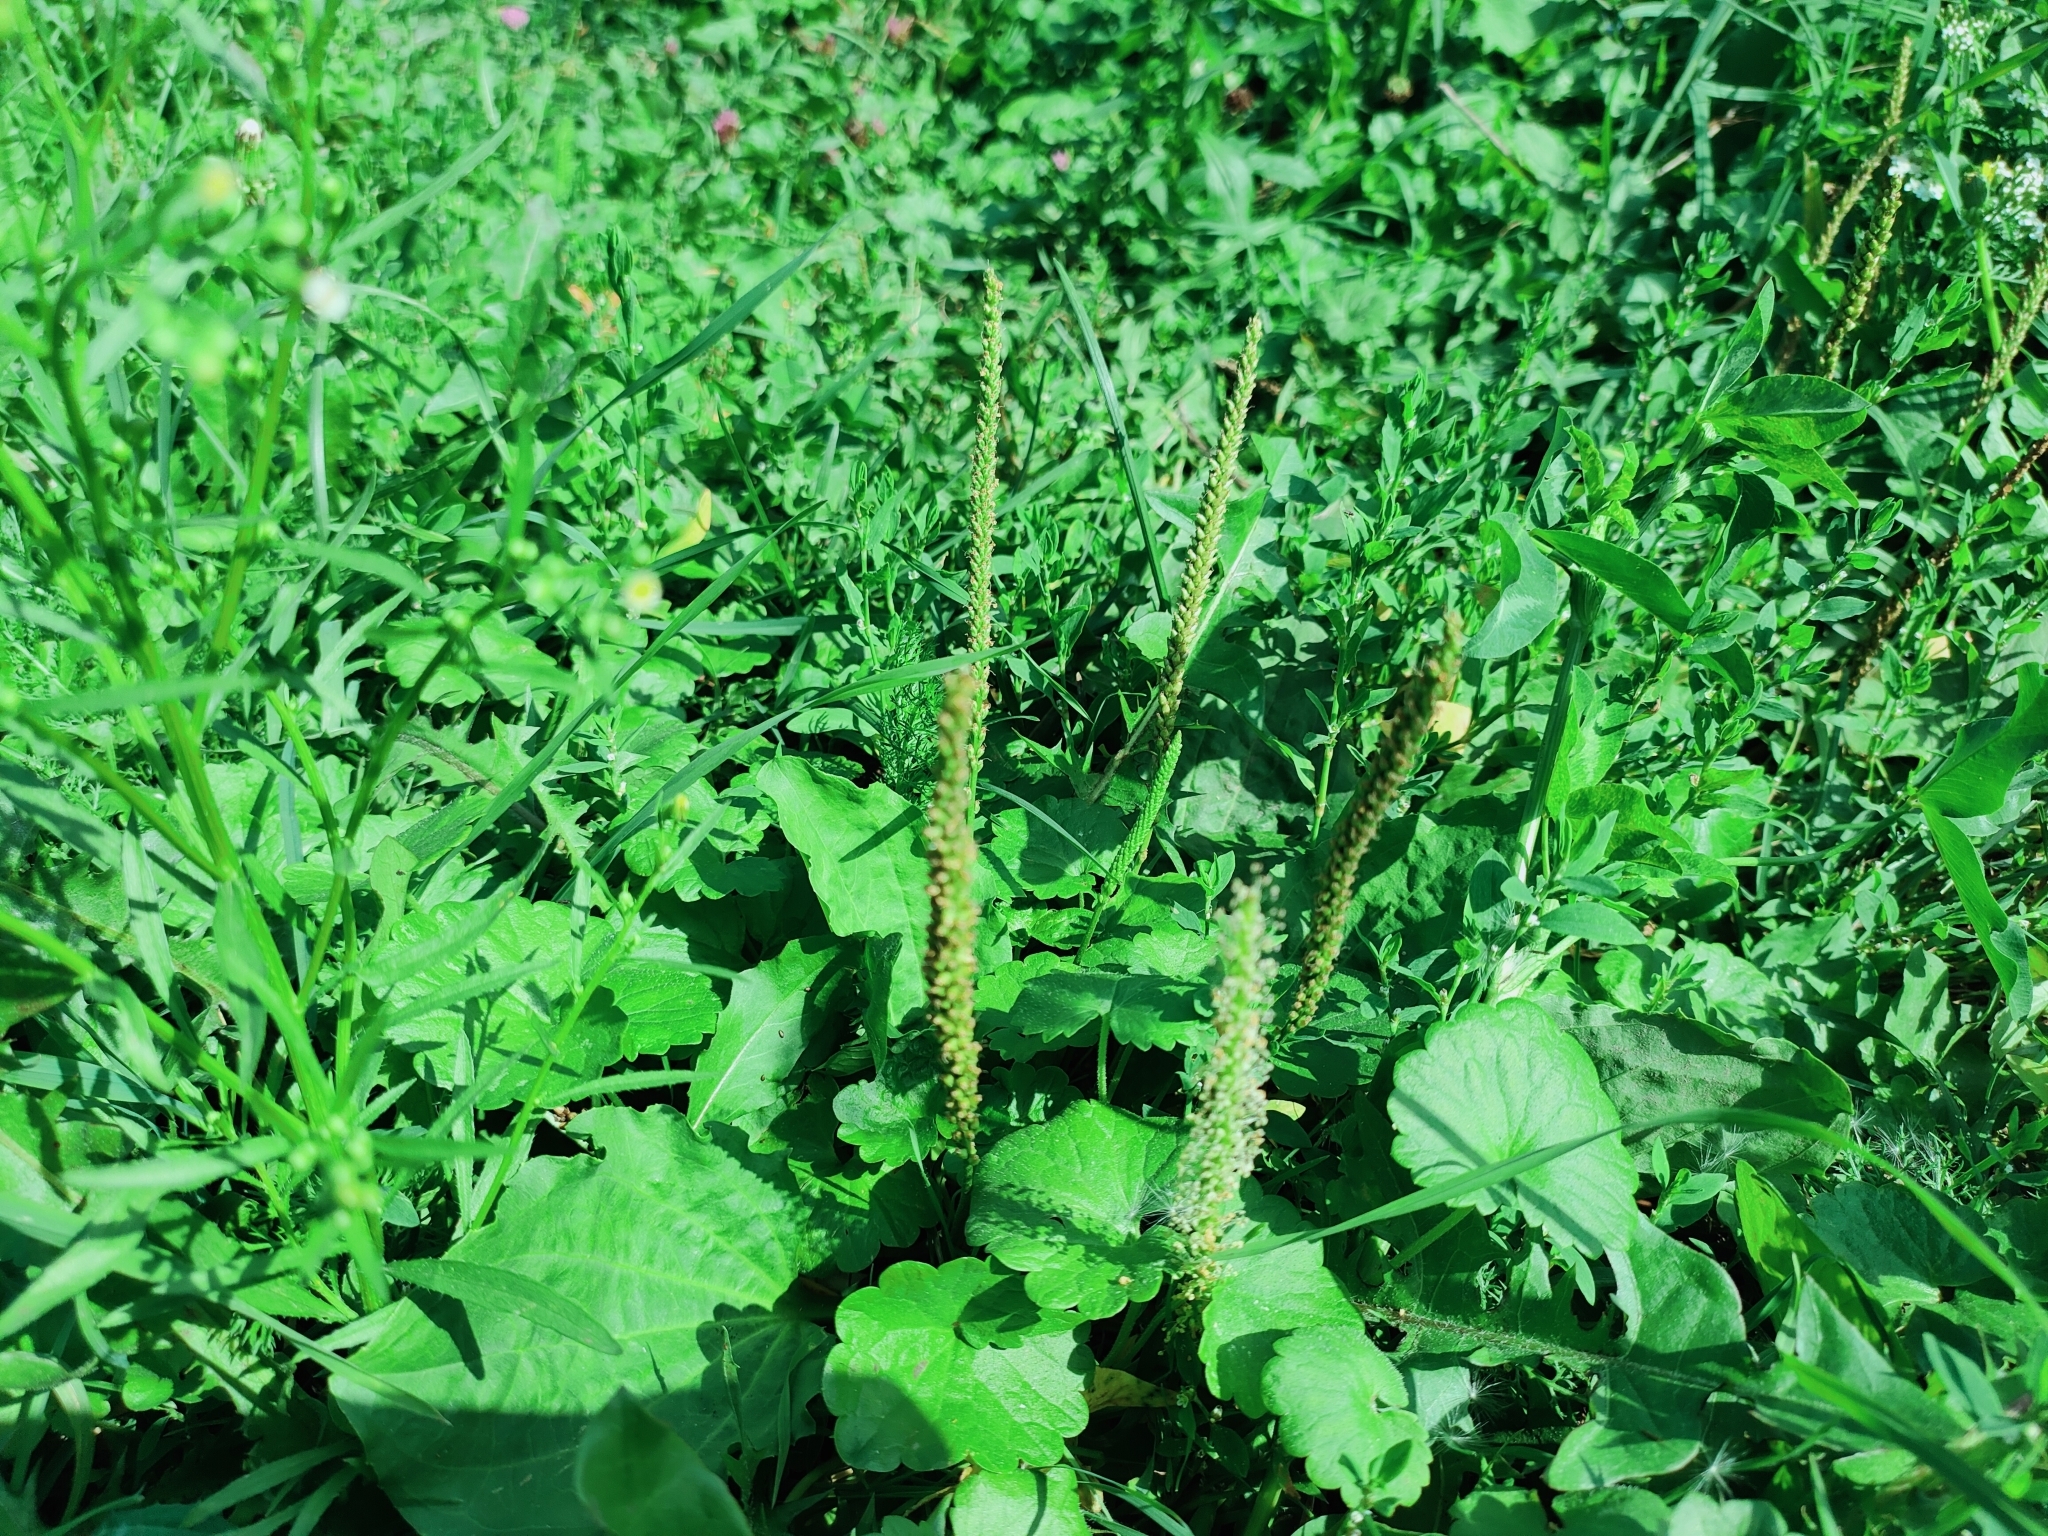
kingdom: Plantae
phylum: Tracheophyta
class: Magnoliopsida
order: Lamiales
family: Plantaginaceae
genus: Plantago
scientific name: Plantago major
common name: Common plantain
